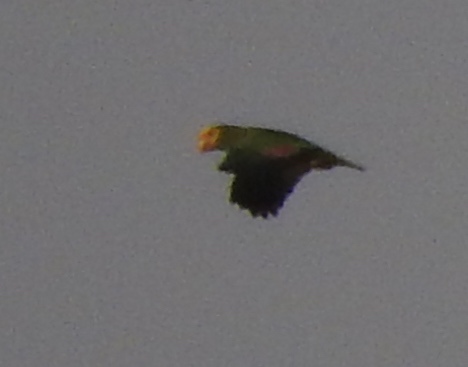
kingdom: Animalia
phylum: Chordata
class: Aves
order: Psittaciformes
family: Psittacidae
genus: Amazona
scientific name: Amazona oratrix
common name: Yellow-headed amazon
